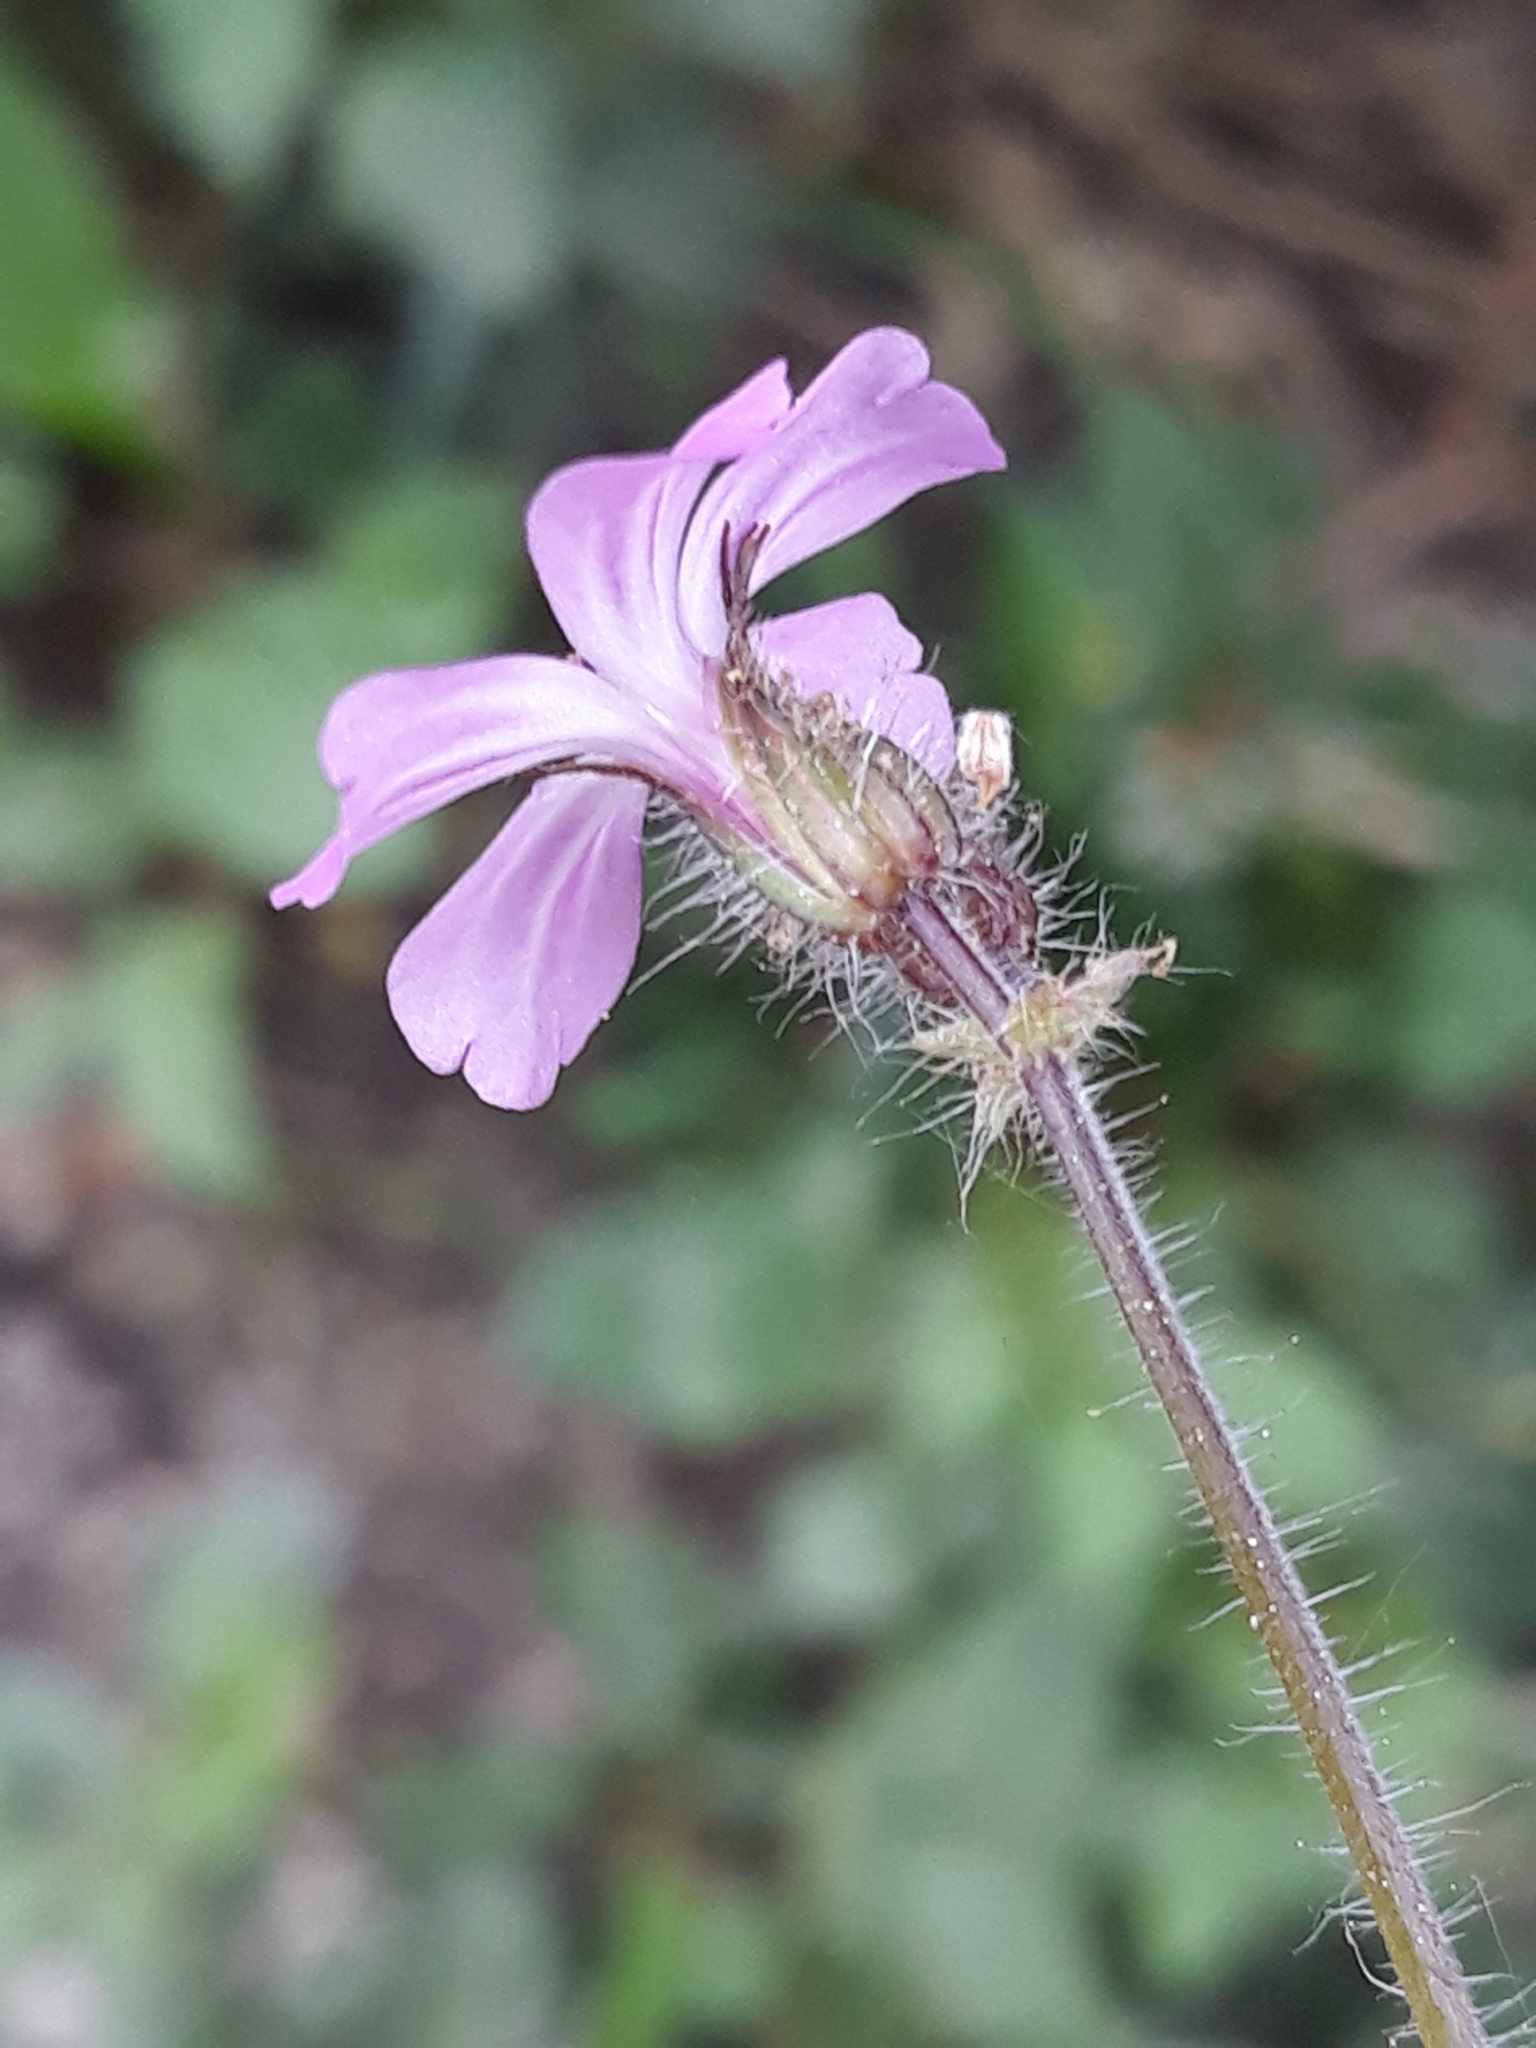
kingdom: Plantae
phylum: Tracheophyta
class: Magnoliopsida
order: Geraniales
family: Geraniaceae
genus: Geranium
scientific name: Geranium robertianum
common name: Herb-robert
